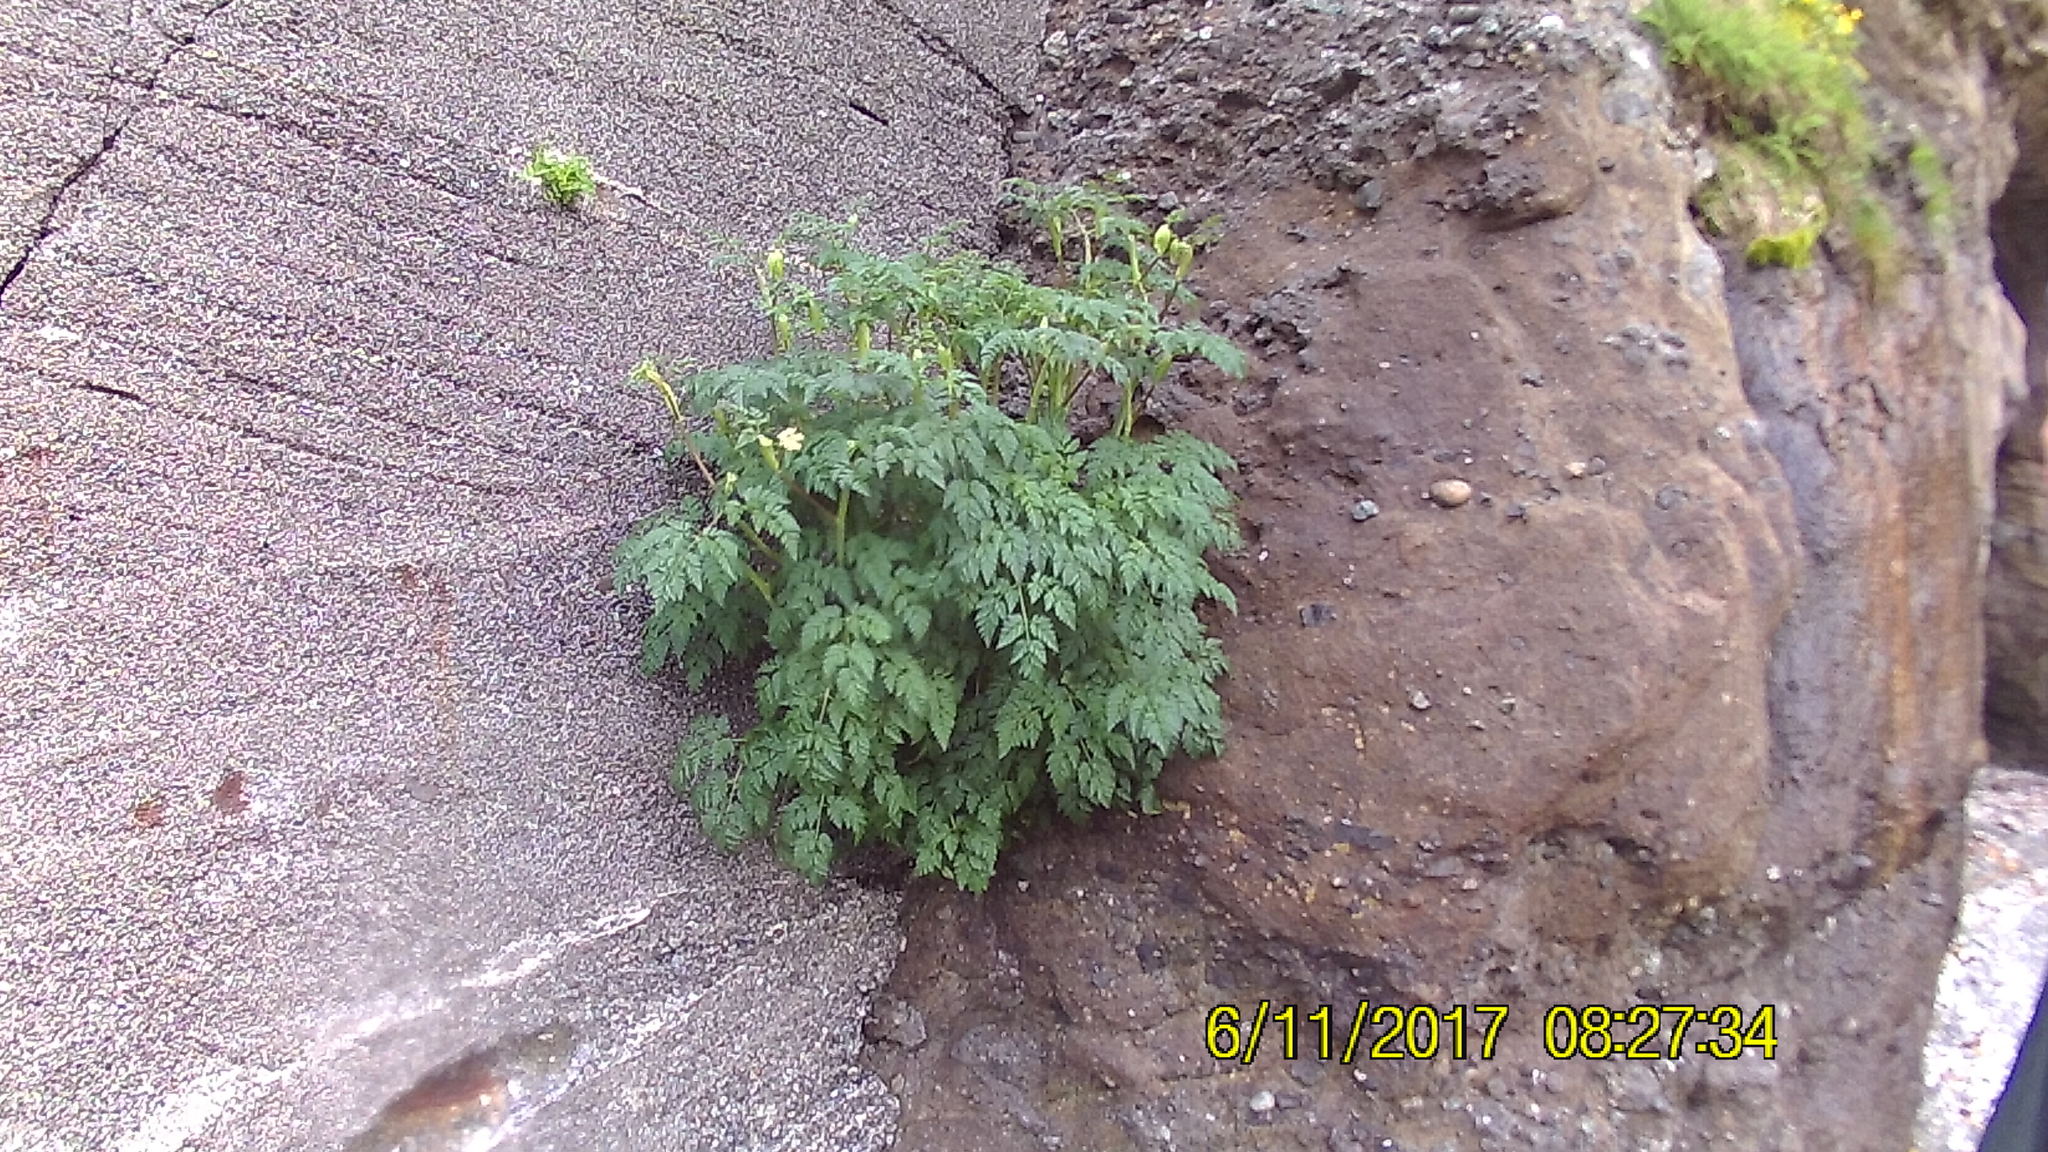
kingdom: Plantae
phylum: Tracheophyta
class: Magnoliopsida
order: Apiales
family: Apiaceae
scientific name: Apiaceae
